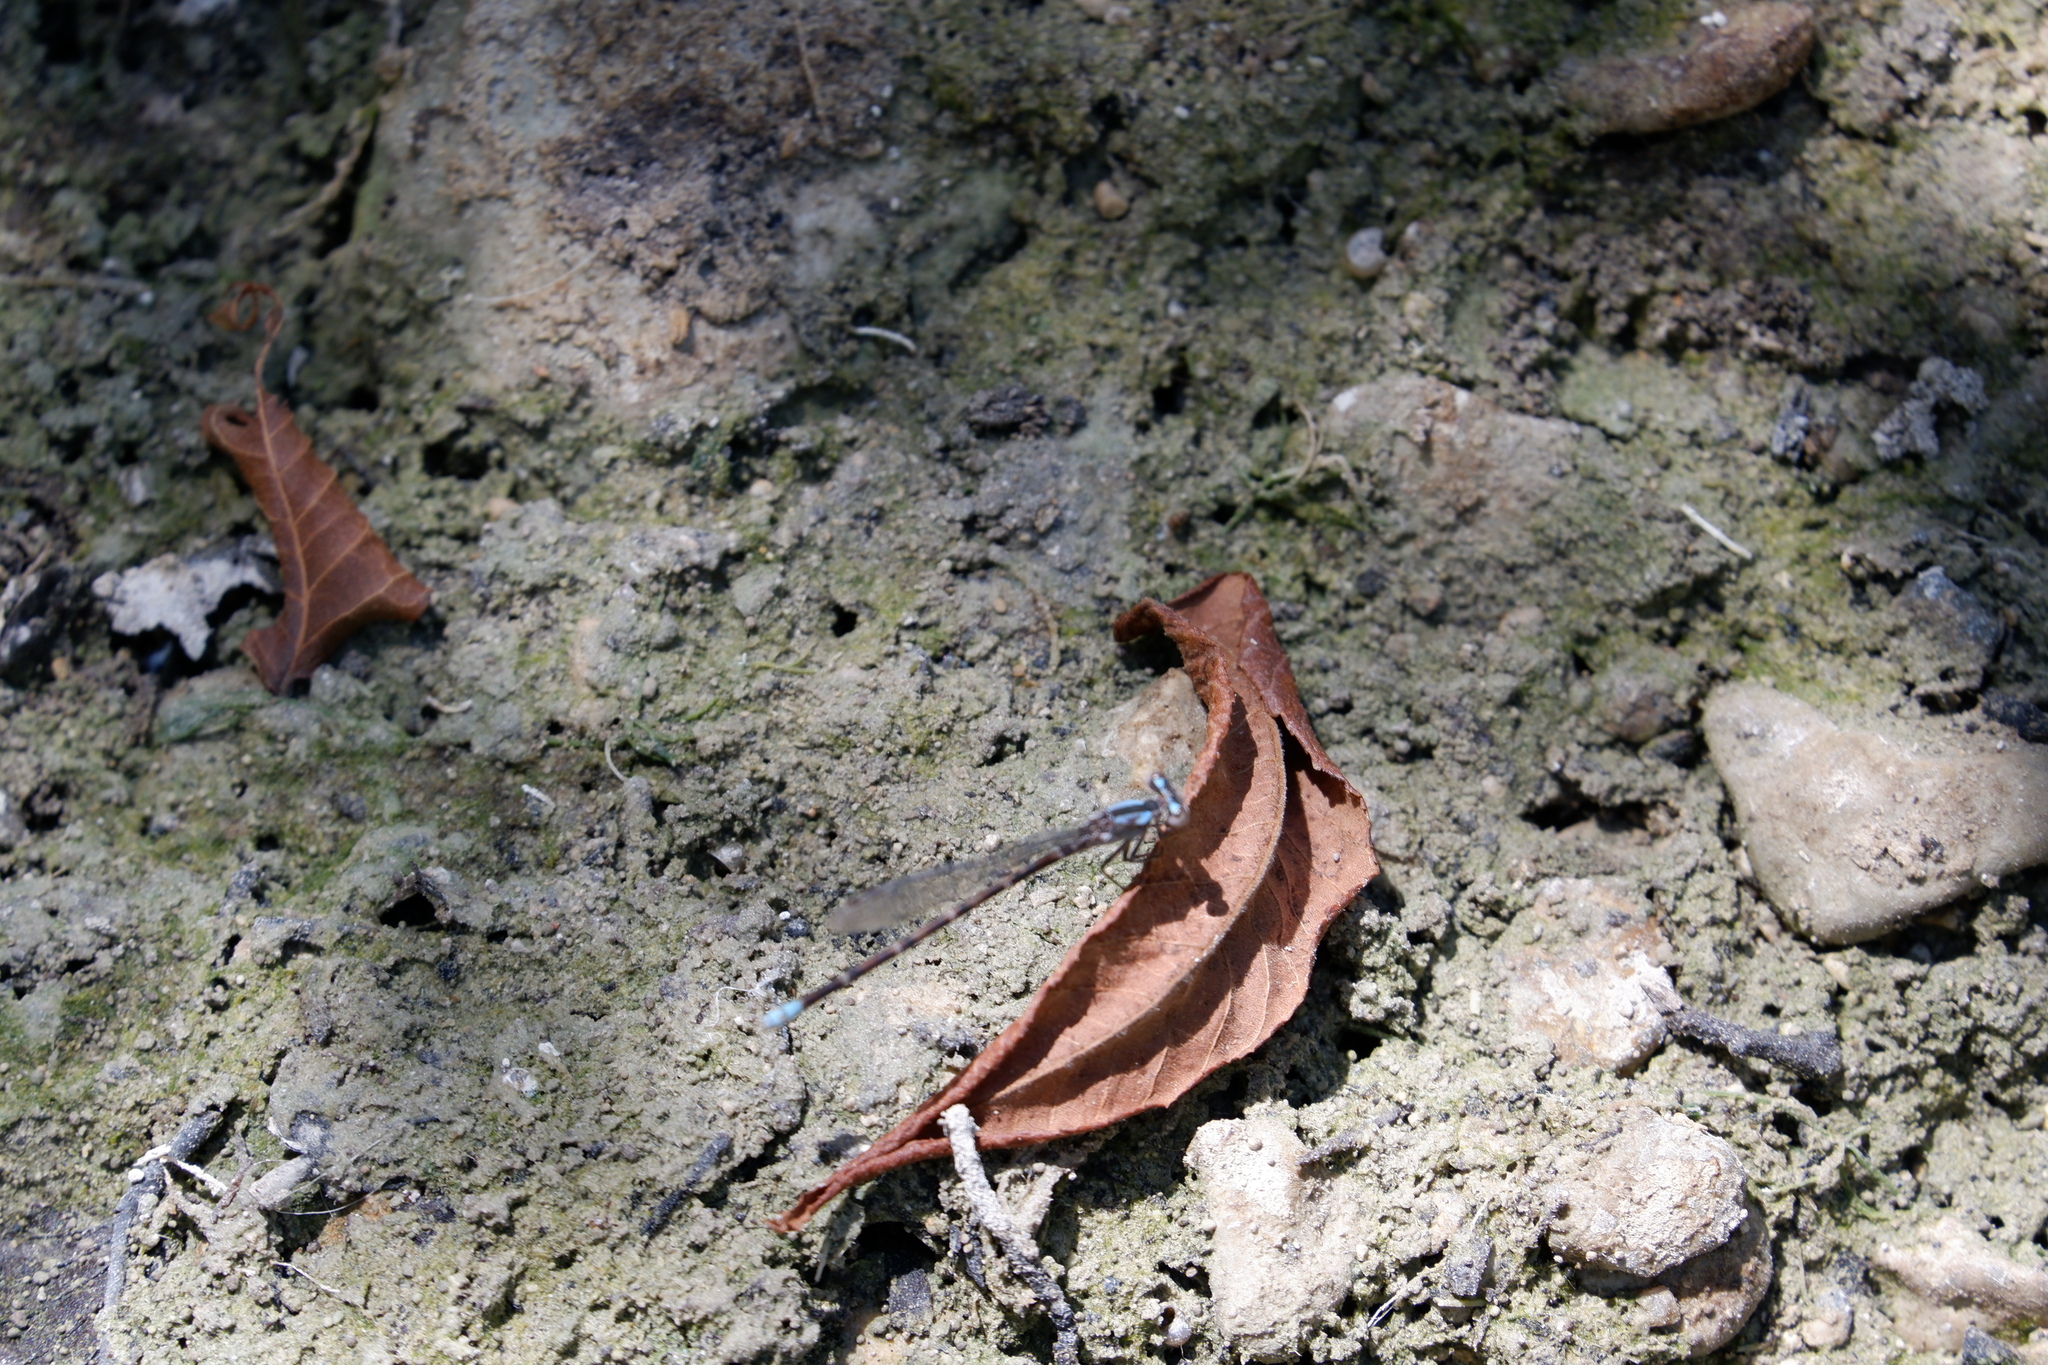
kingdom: Animalia
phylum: Arthropoda
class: Insecta
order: Odonata
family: Coenagrionidae
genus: Argia
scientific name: Argia immunda
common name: Kiowa dancer
